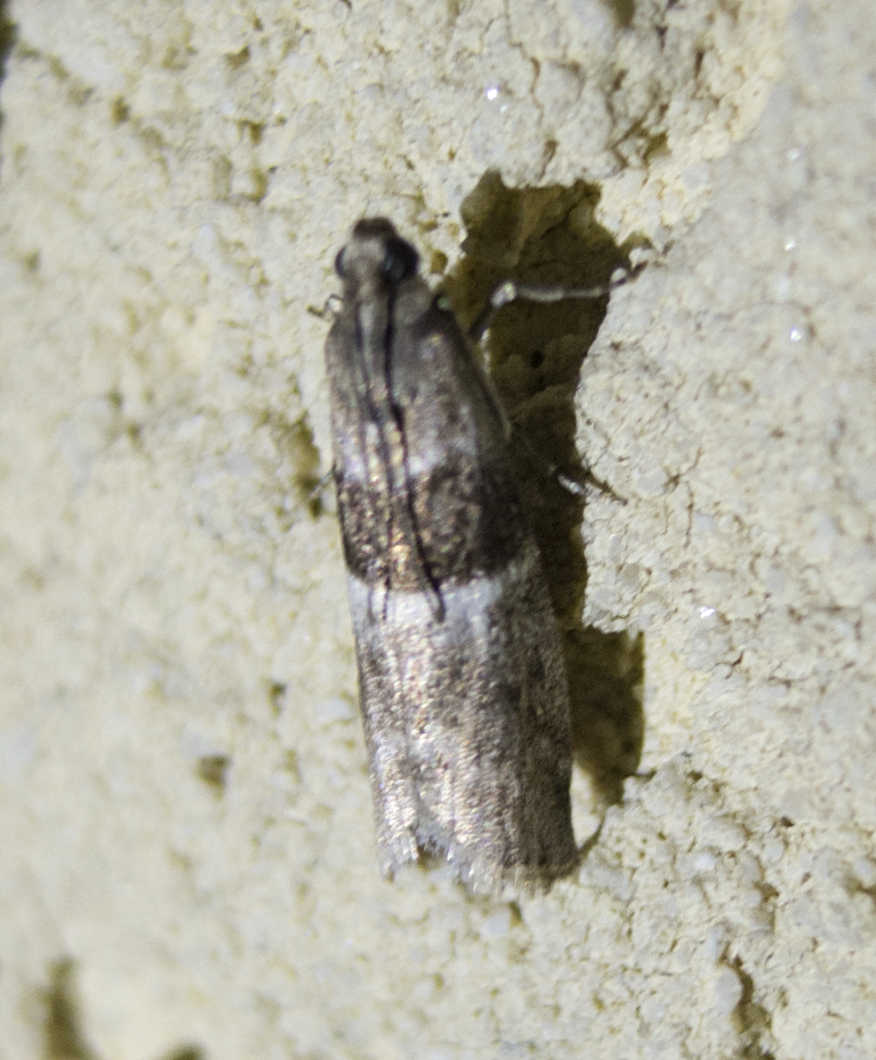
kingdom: Animalia
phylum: Arthropoda
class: Insecta
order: Lepidoptera
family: Pyralidae
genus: Elegia
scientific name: Elegia atrifasciella
